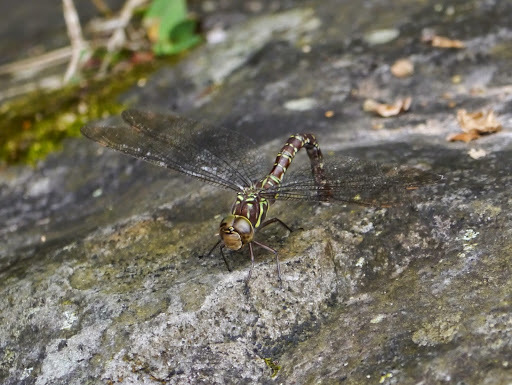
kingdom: Animalia
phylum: Arthropoda
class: Insecta
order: Odonata
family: Aeshnidae
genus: Aeshna
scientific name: Aeshna umbrosa
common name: Shadow darner
